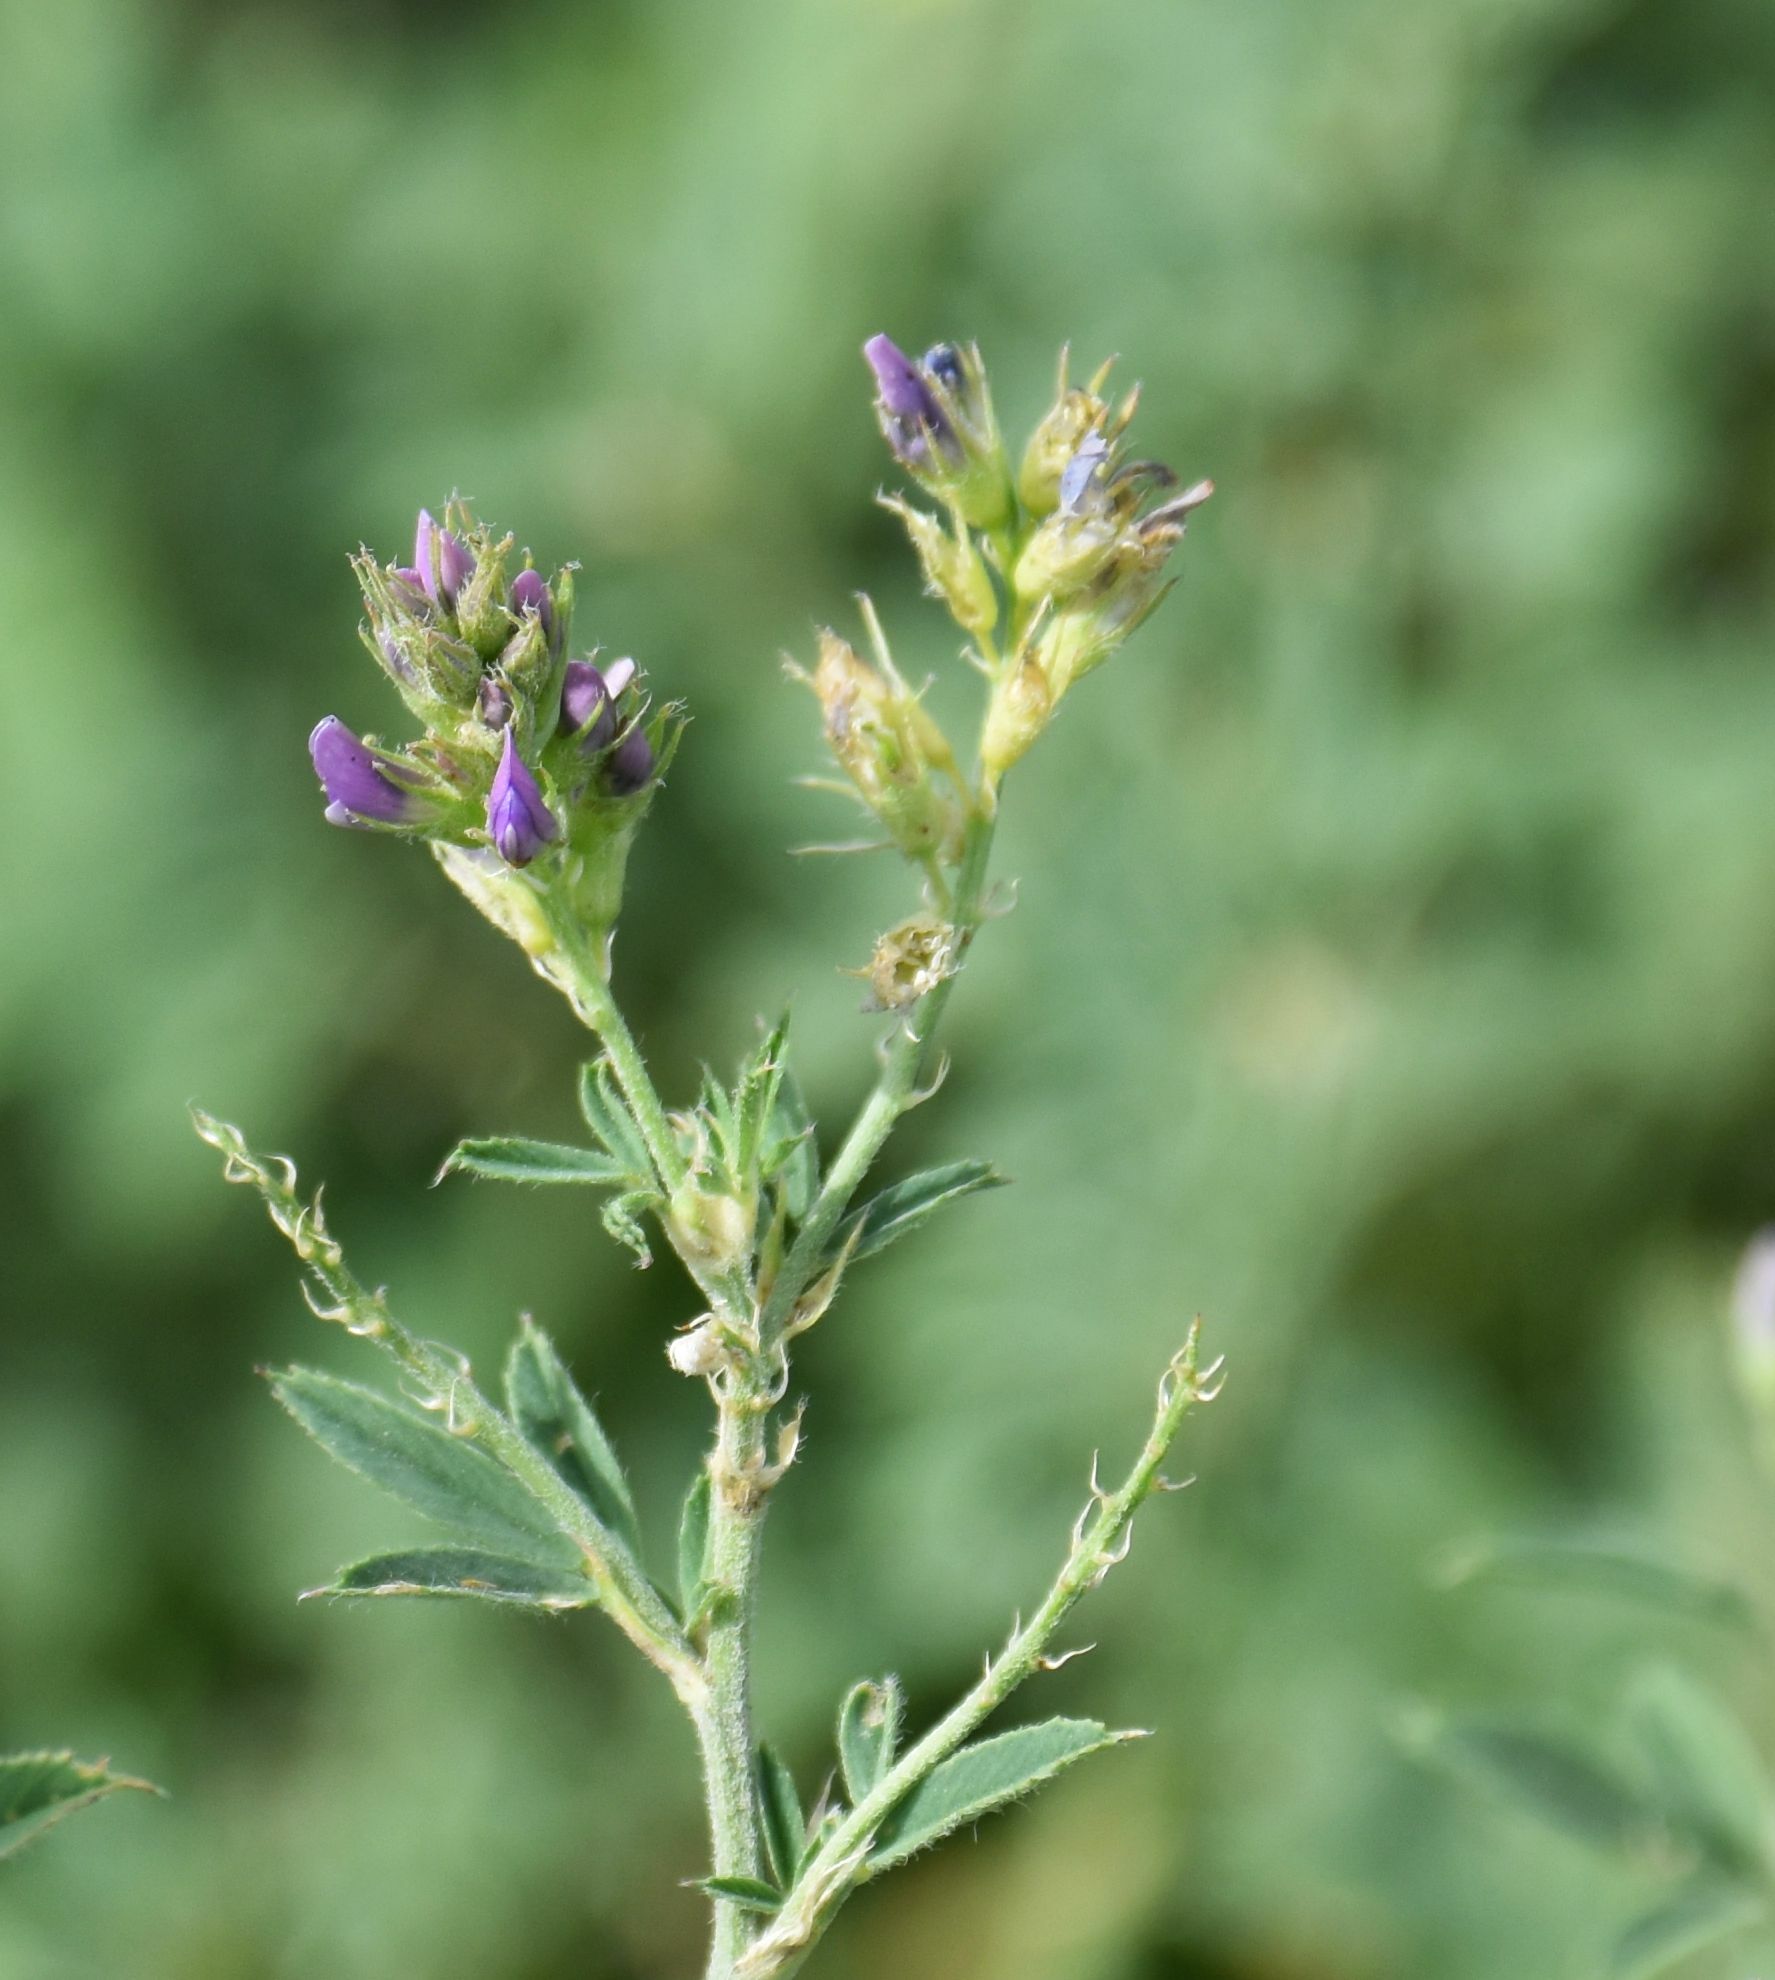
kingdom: Plantae
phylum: Tracheophyta
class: Magnoliopsida
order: Fabales
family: Fabaceae
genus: Medicago
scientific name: Medicago sativa
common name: Alfalfa
